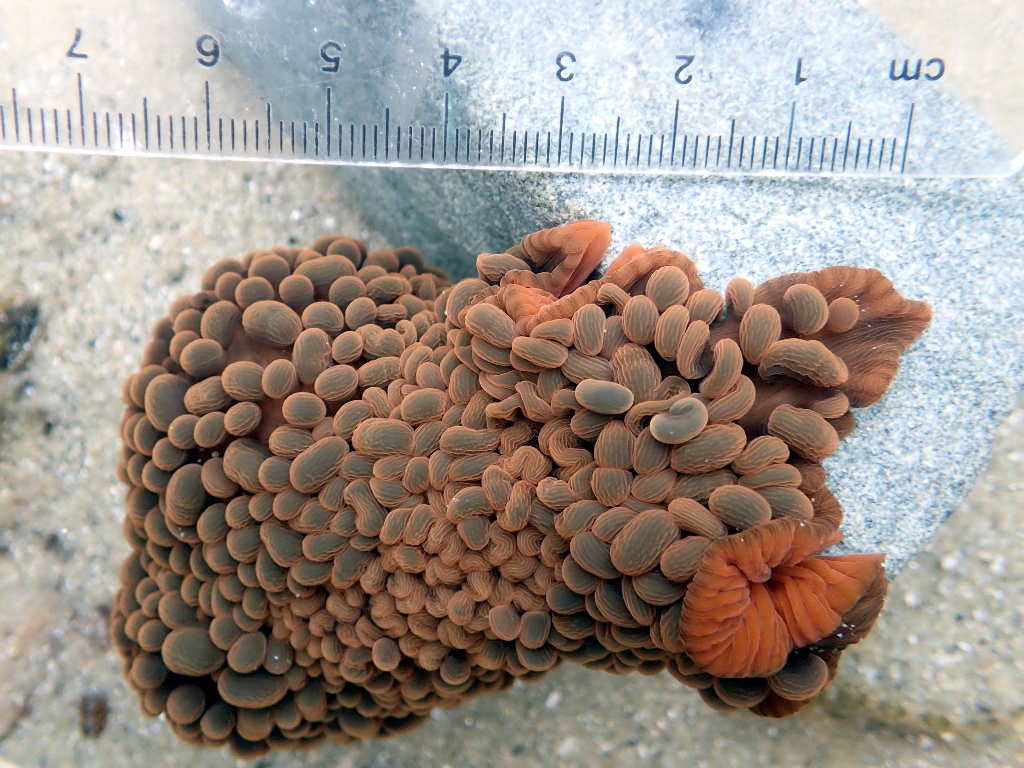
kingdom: Animalia
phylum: Cnidaria
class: Anthozoa
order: Actiniaria
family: Actiniidae
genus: Phlyctenactis
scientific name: Phlyctenactis tuberculosa
